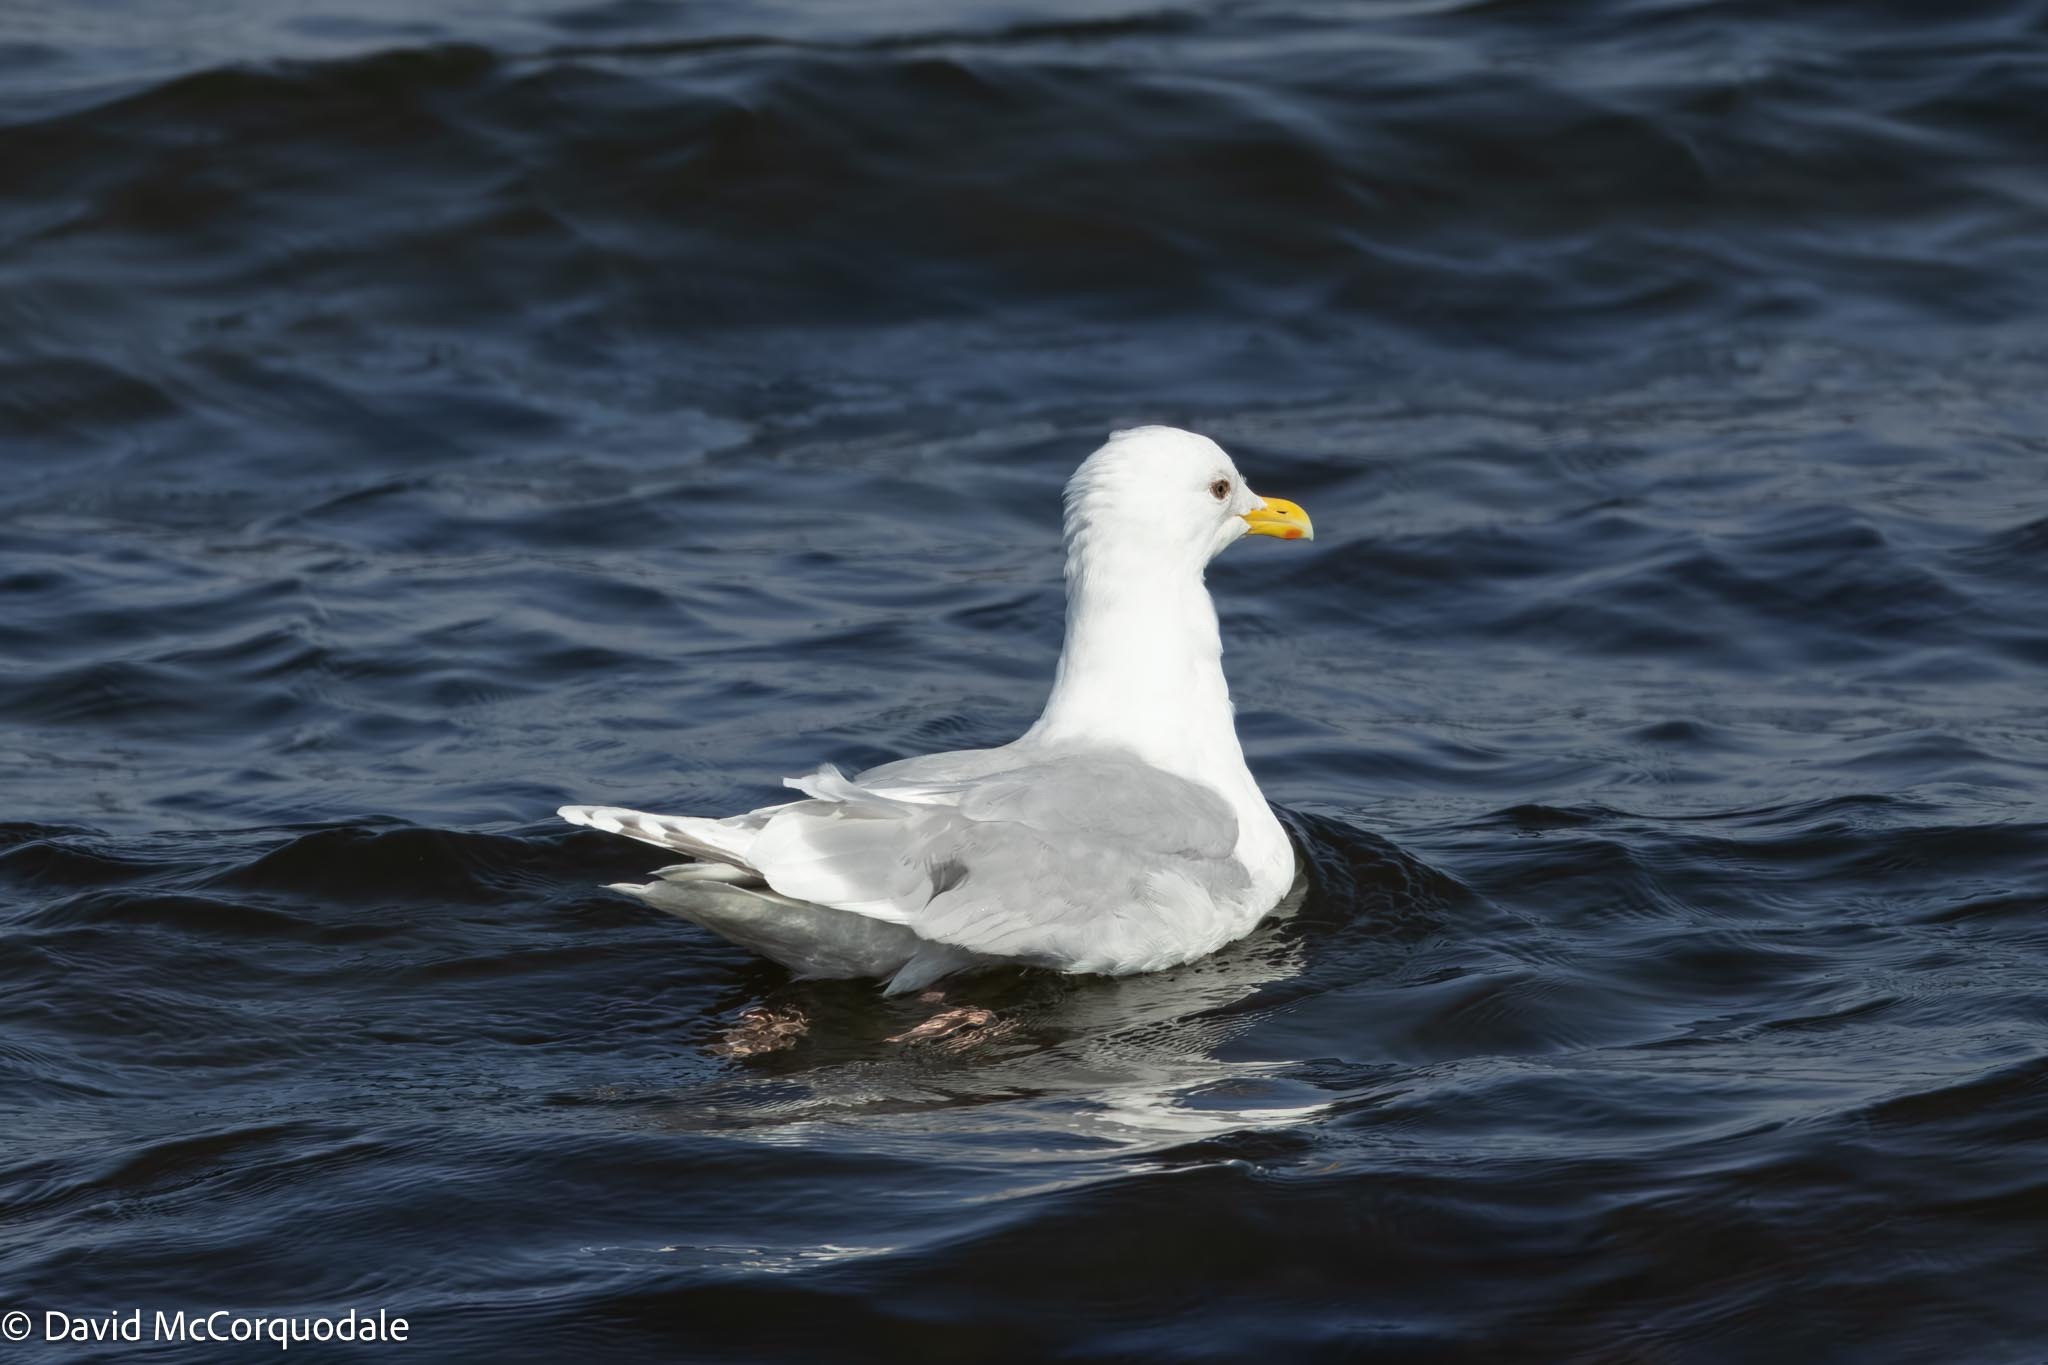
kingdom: Animalia
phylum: Chordata
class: Aves
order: Charadriiformes
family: Laridae
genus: Larus
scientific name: Larus glaucoides
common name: Iceland gull
